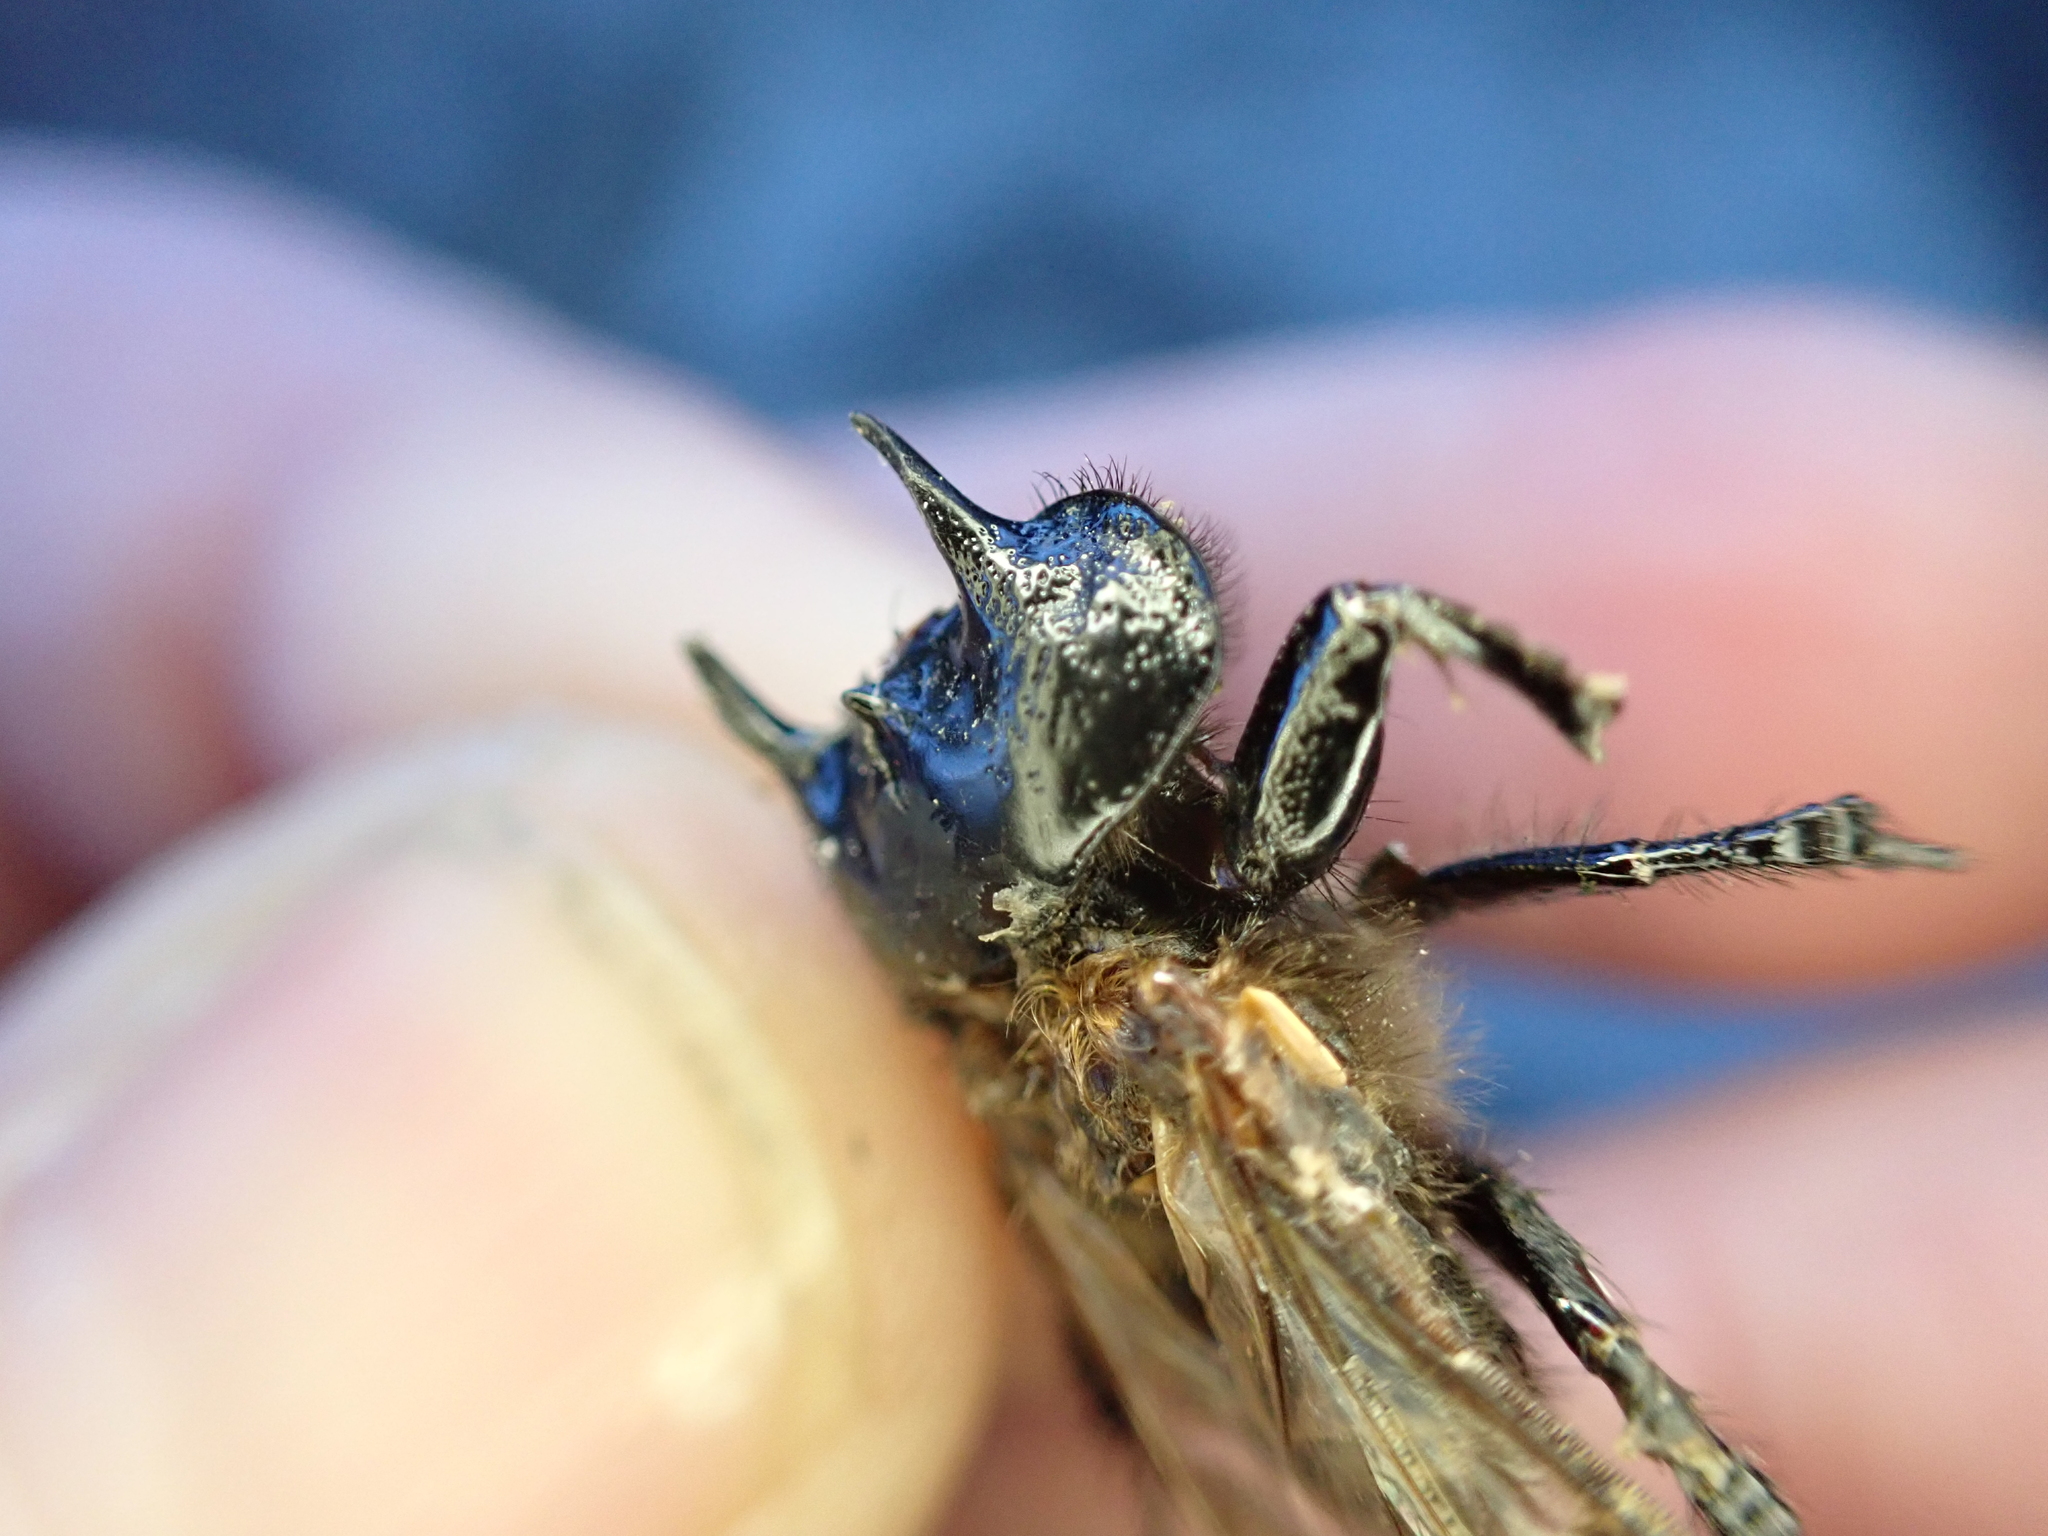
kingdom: Animalia
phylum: Arthropoda
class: Insecta
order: Coleoptera
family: Geotrupidae
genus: Typhaeus
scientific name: Typhaeus typhoeus
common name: Minotaur beetle
